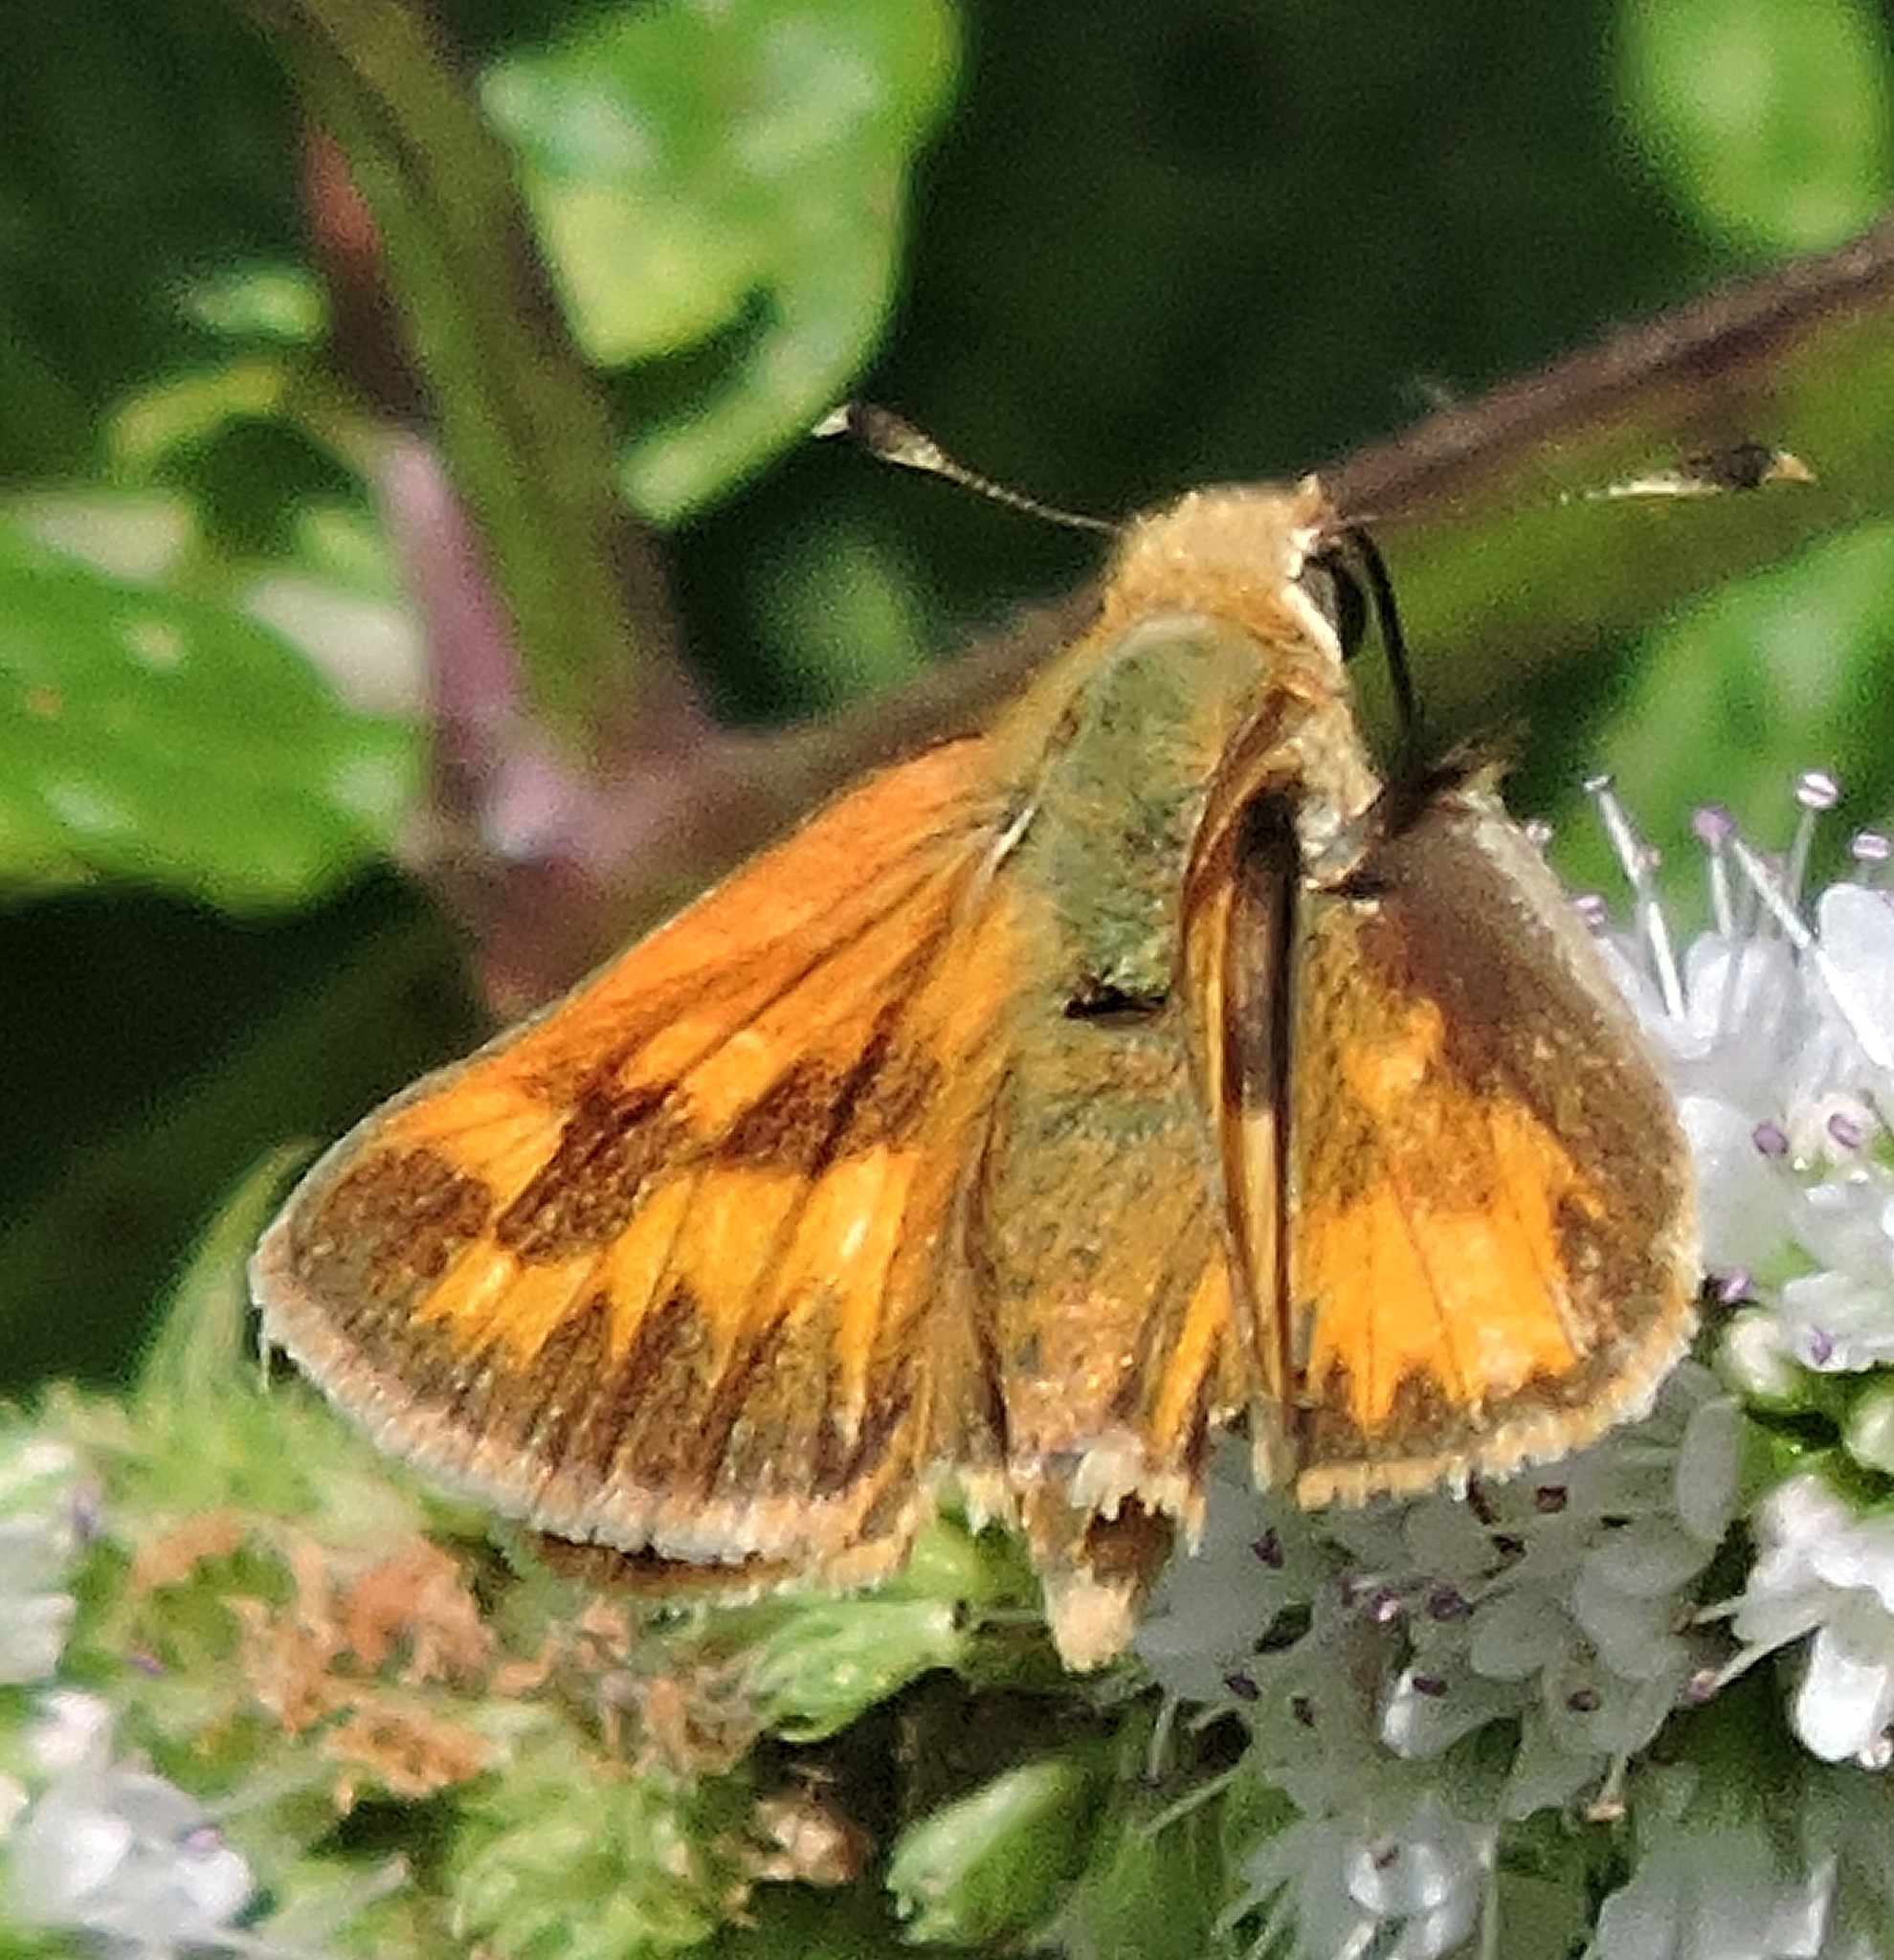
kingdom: Animalia
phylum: Arthropoda
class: Insecta
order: Lepidoptera
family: Hesperiidae
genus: Ochlodes
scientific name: Ochlodes sylvanoides
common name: Woodland skipper
